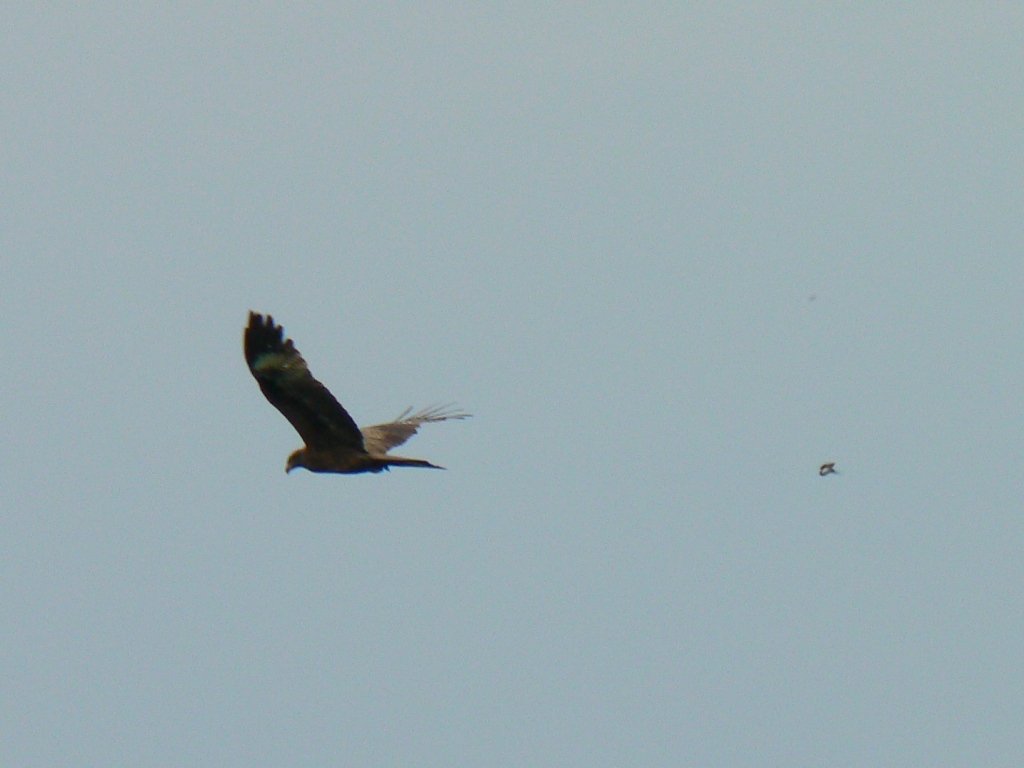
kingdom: Animalia
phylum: Chordata
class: Aves
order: Accipitriformes
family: Accipitridae
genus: Milvus
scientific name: Milvus migrans
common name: Black kite
